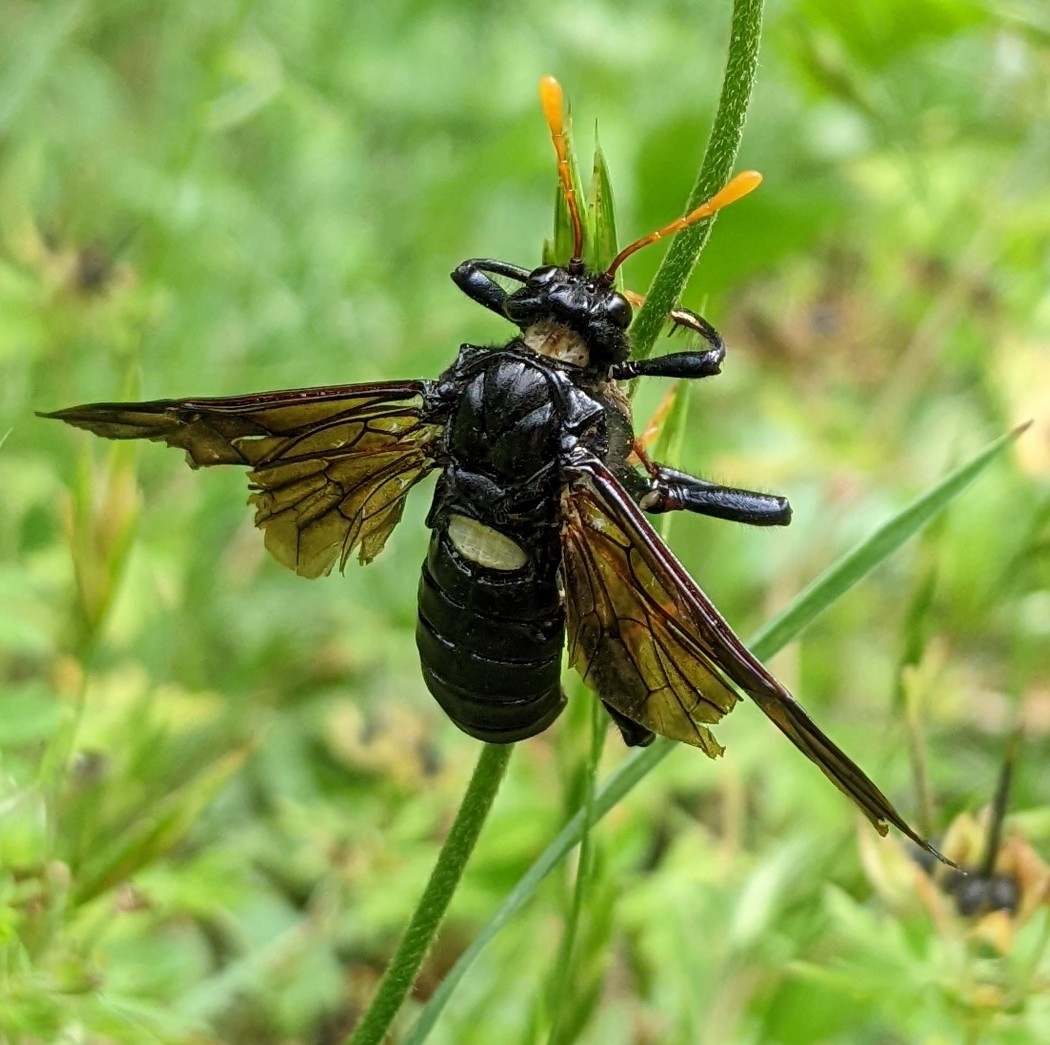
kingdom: Animalia
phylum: Arthropoda
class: Insecta
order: Hymenoptera
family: Cimbicidae
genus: Cimbex
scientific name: Cimbex americana
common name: Elm sawfly
